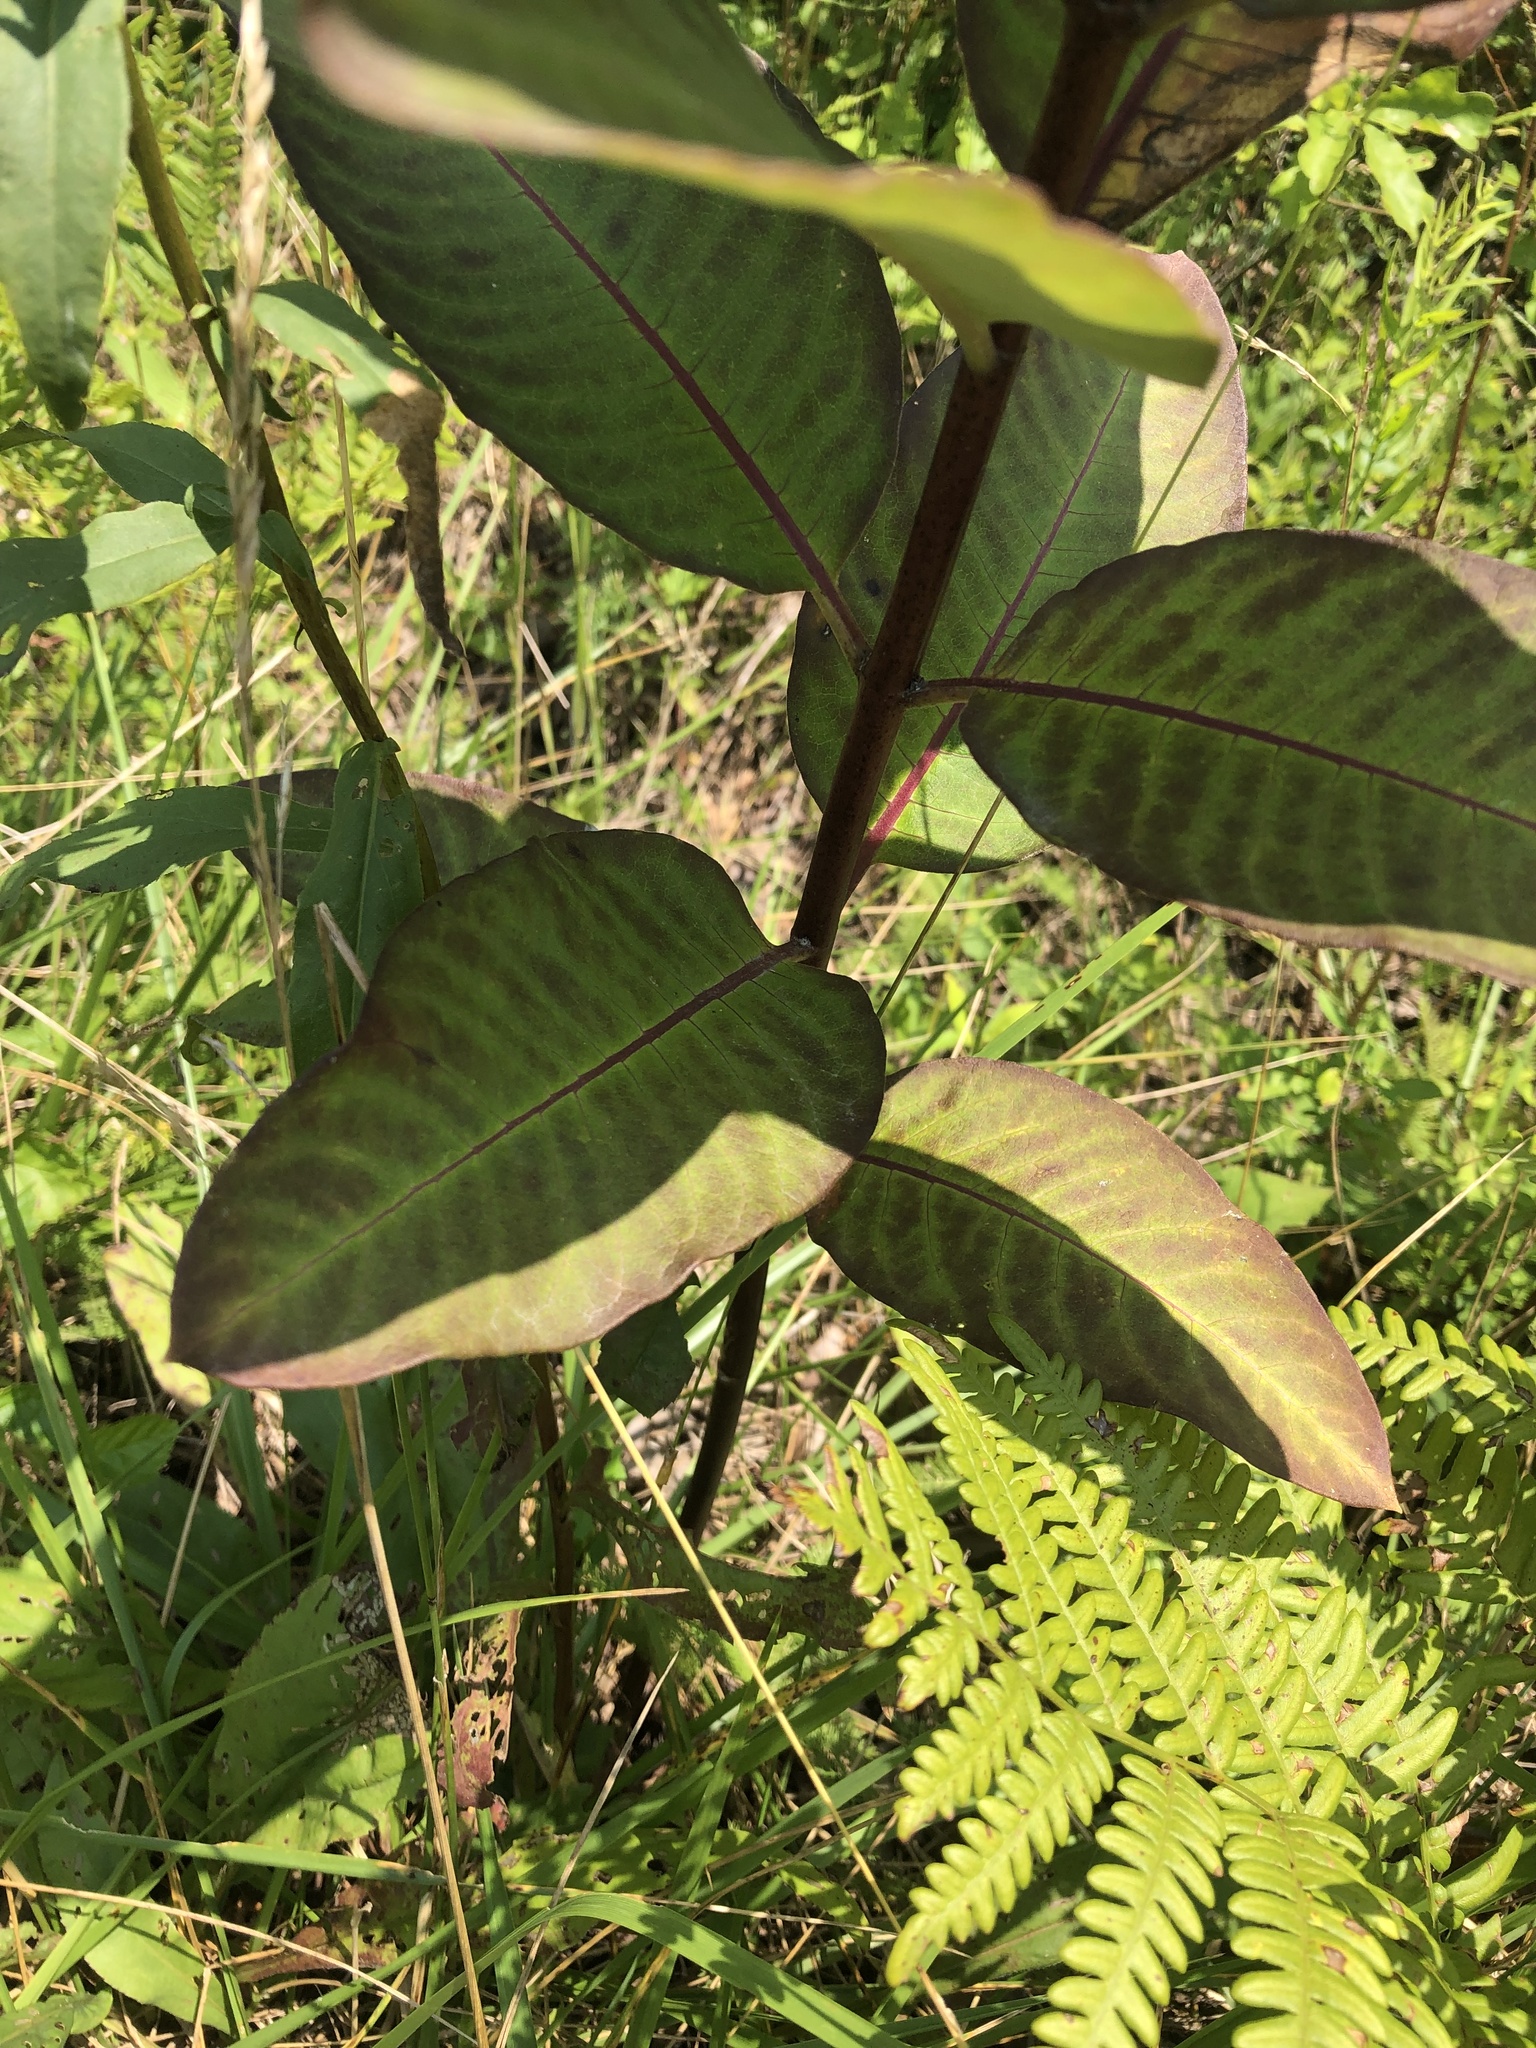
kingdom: Plantae
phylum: Tracheophyta
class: Magnoliopsida
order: Gentianales
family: Apocynaceae
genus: Asclepias
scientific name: Asclepias syriaca
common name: Common milkweed
